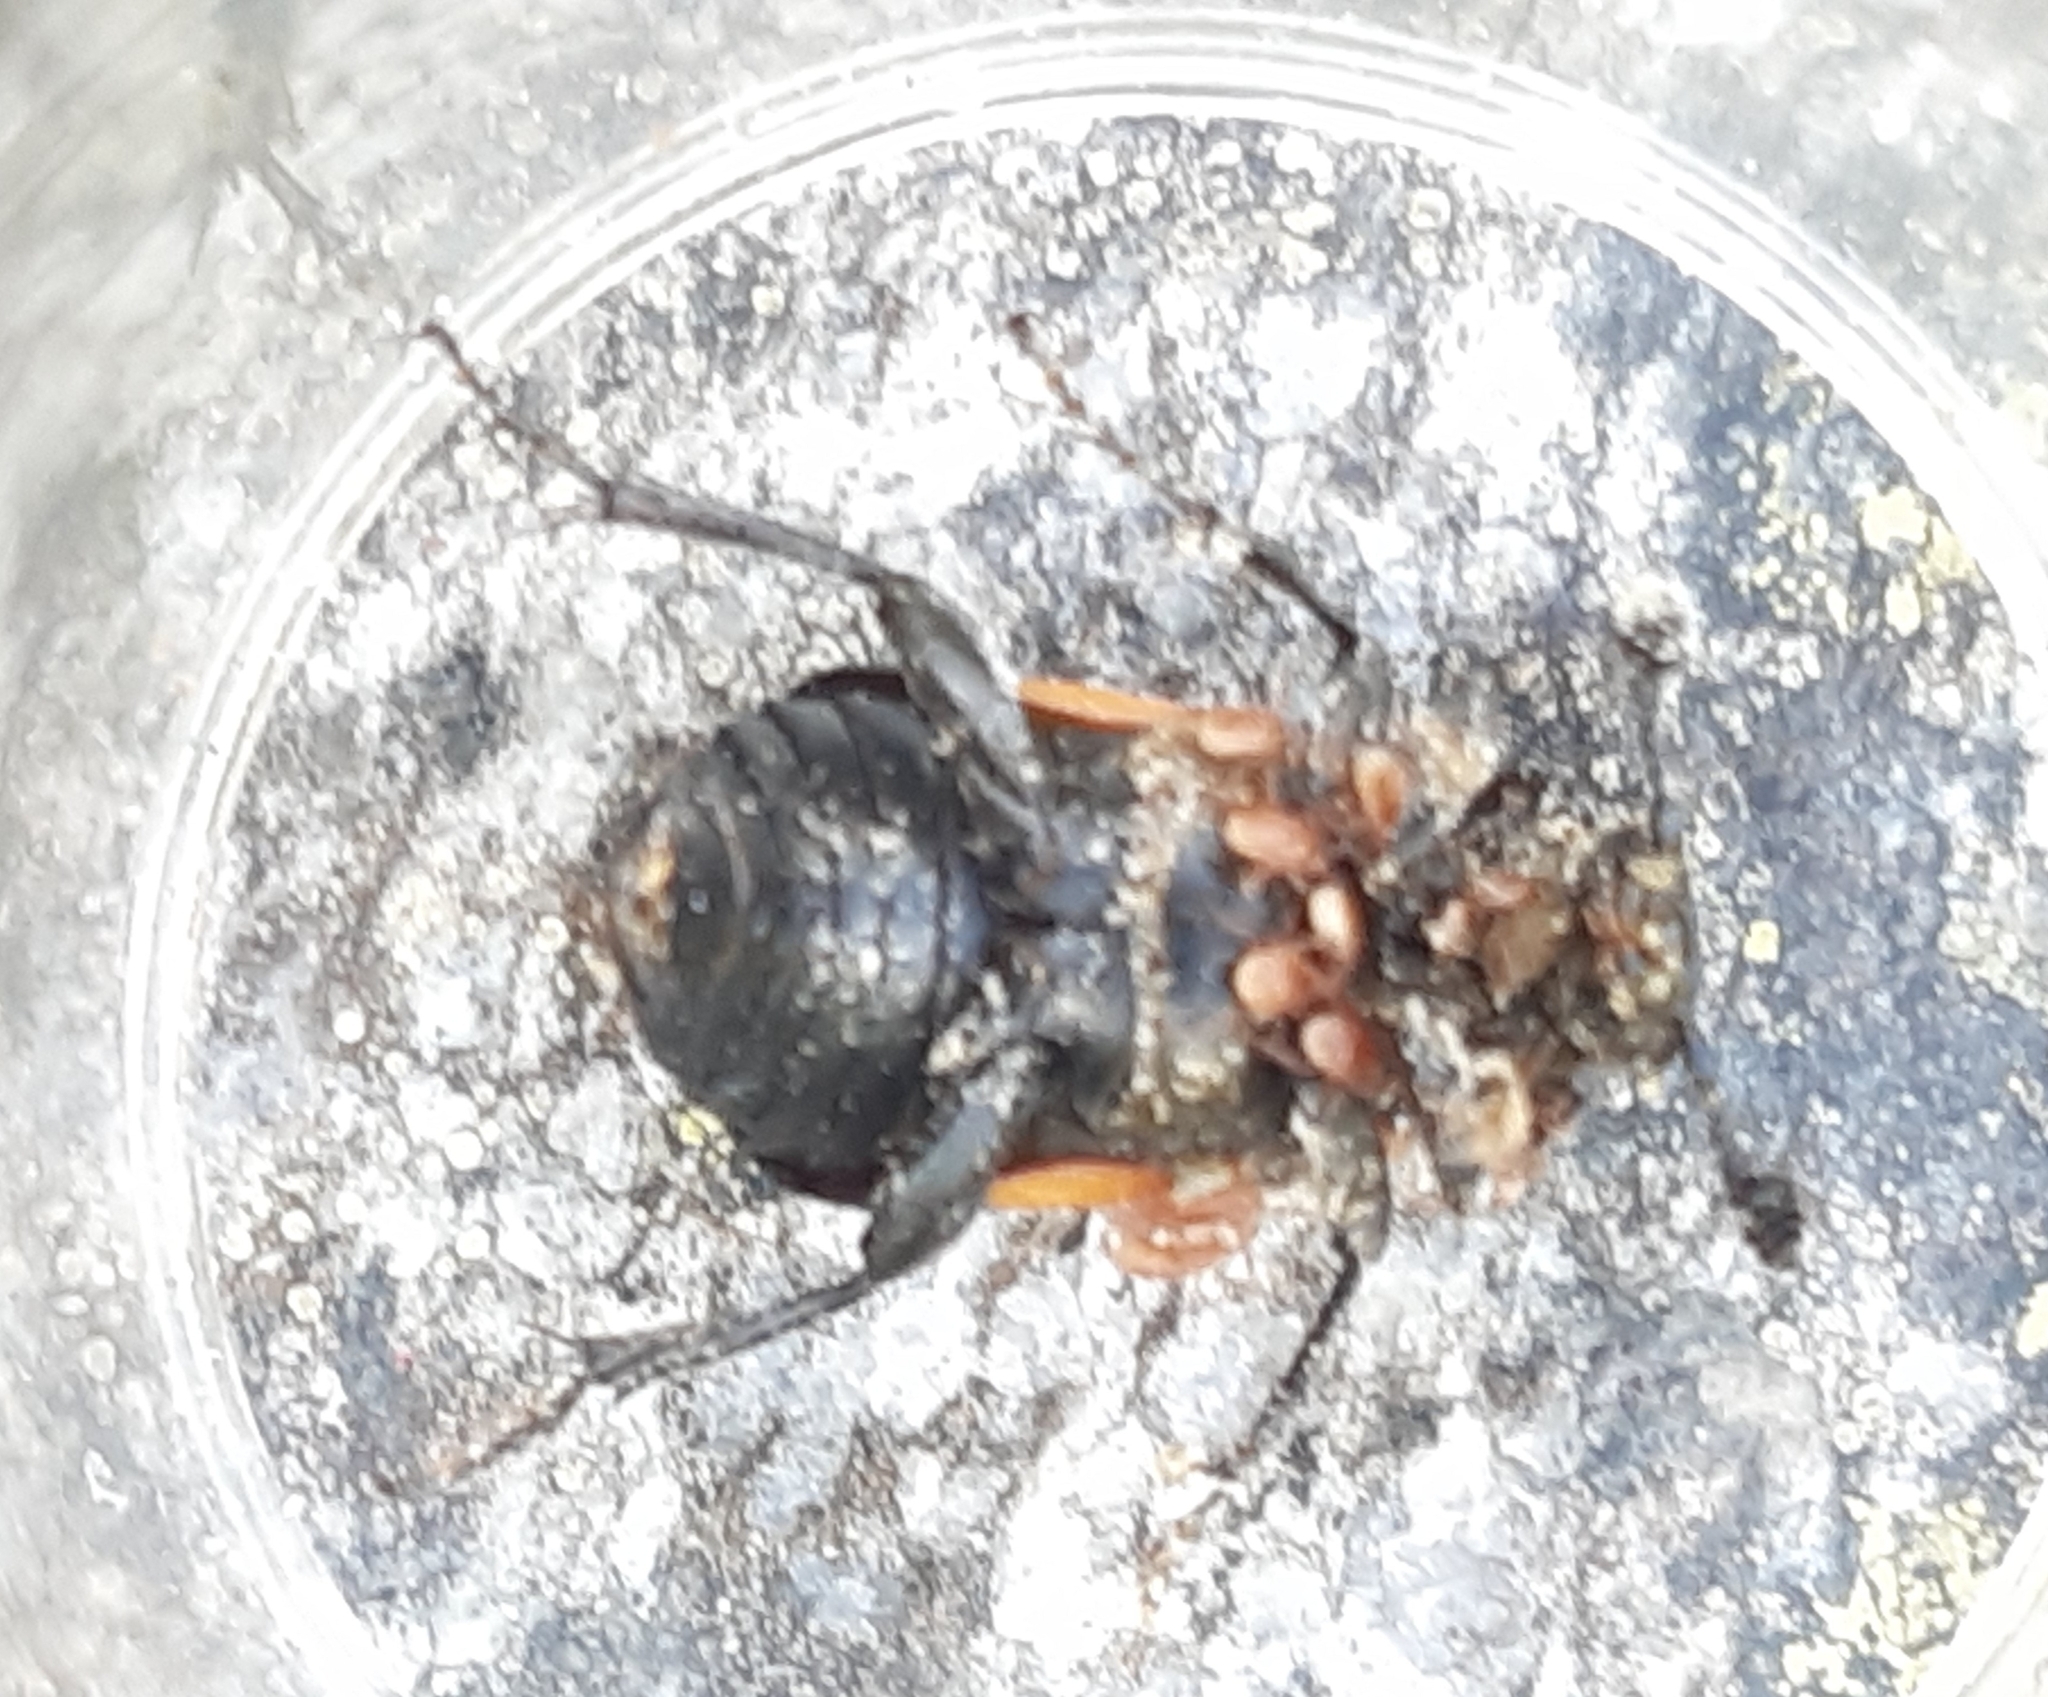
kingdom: Animalia
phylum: Arthropoda
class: Insecta
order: Coleoptera
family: Staphylinidae
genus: Nicrophorus
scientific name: Nicrophorus vespilloides
